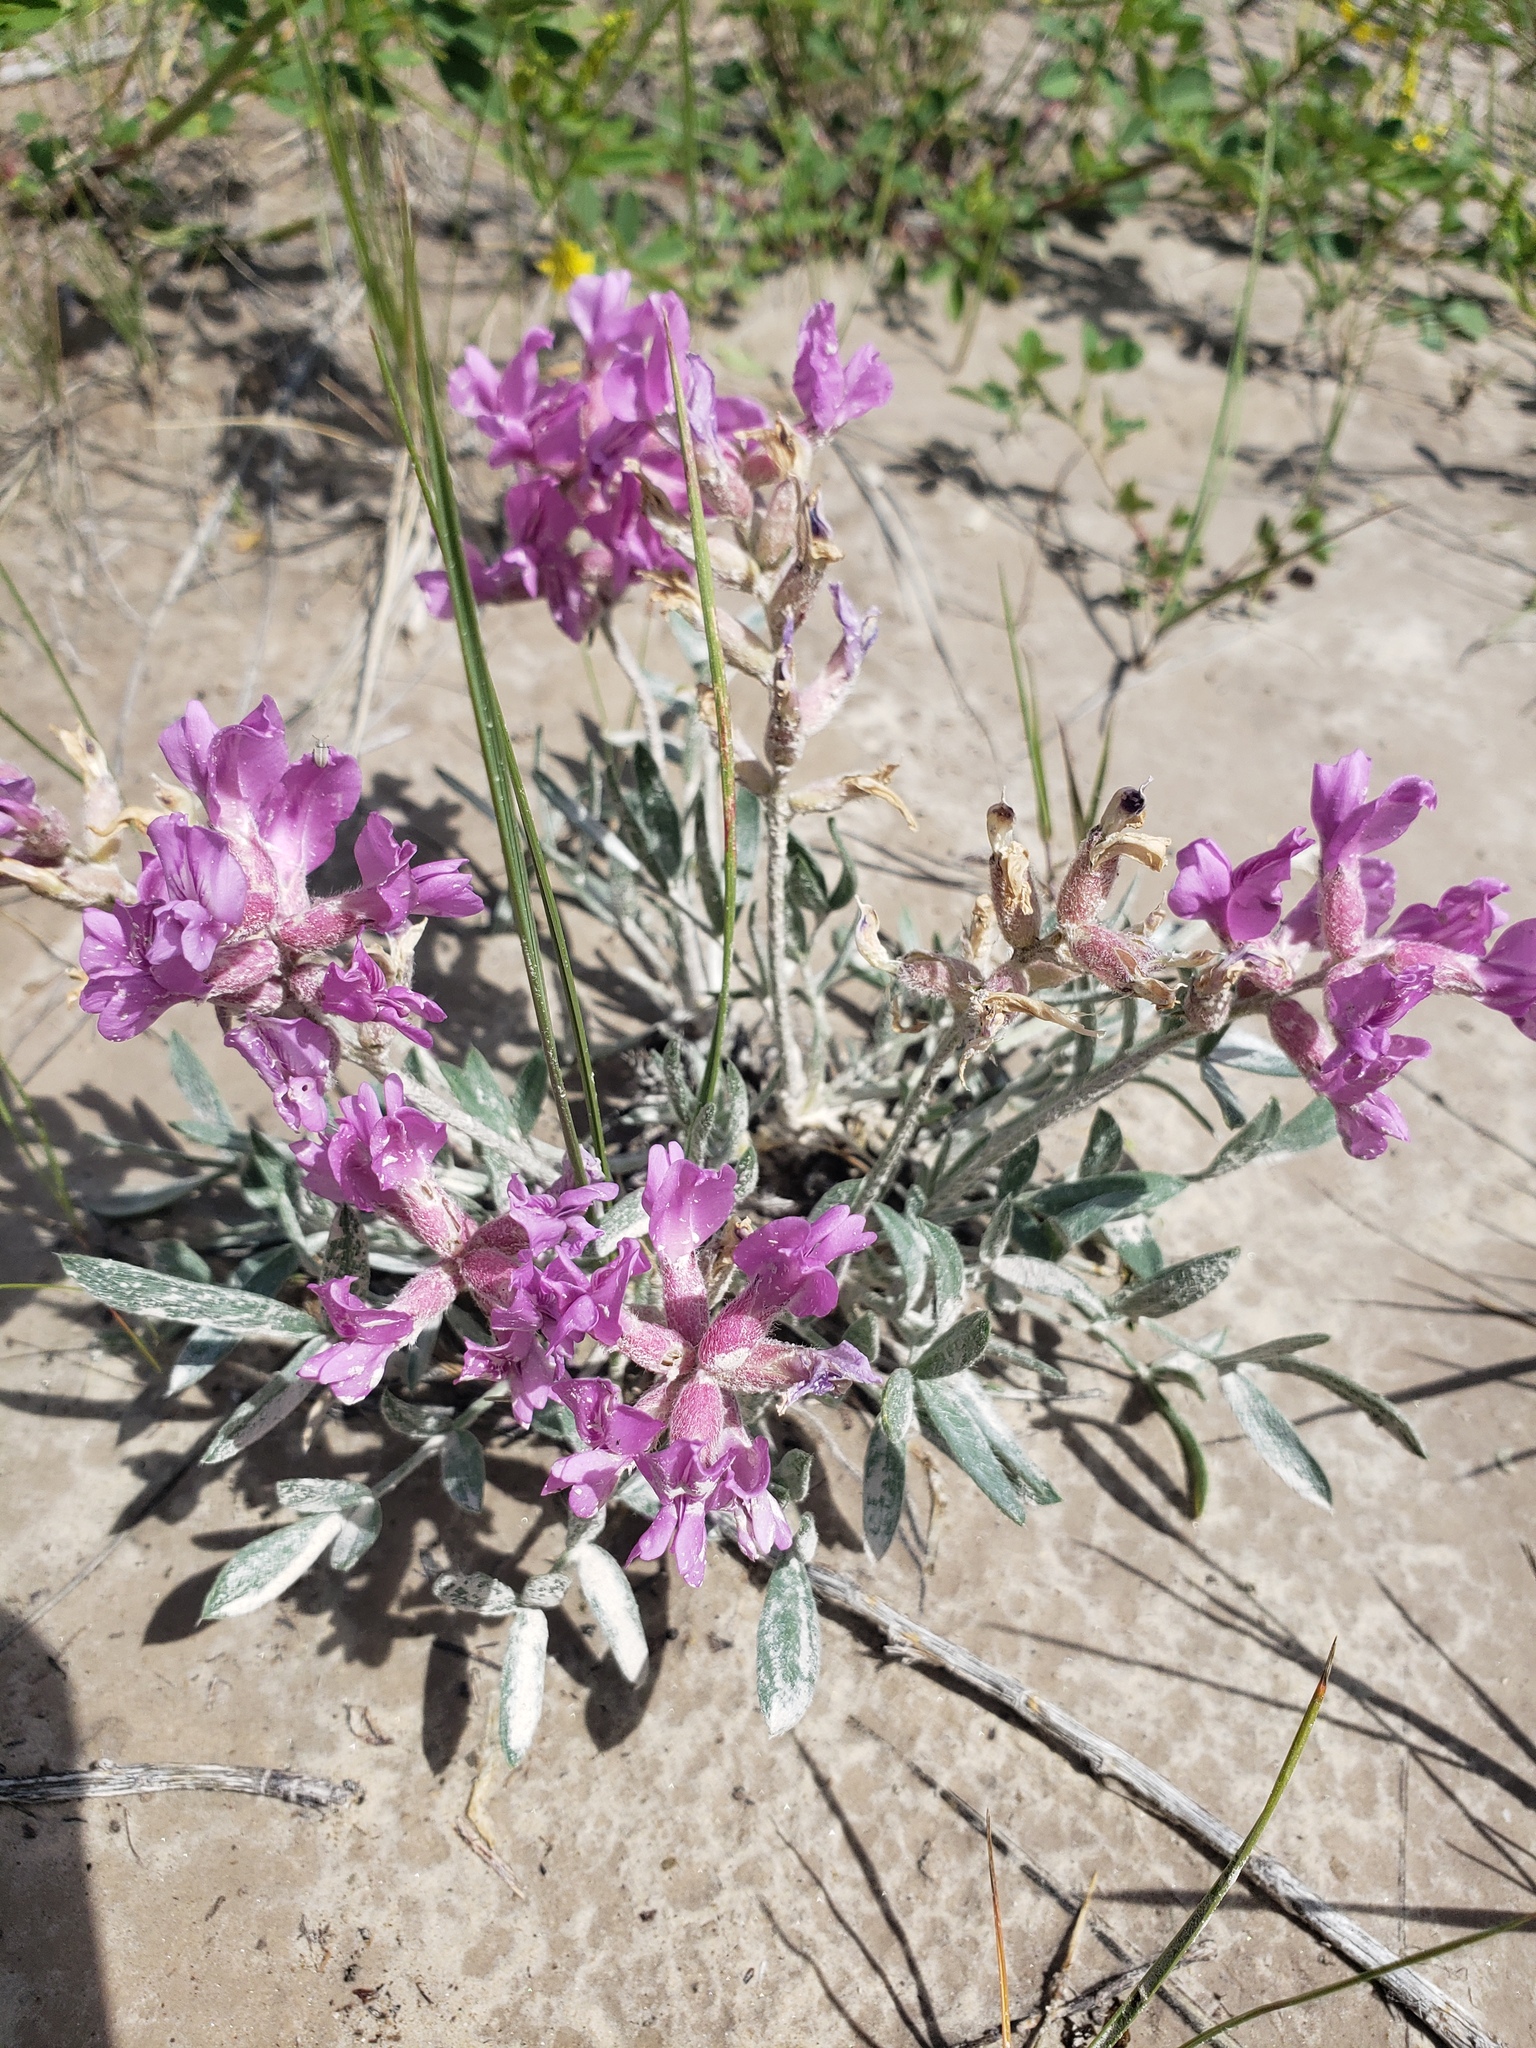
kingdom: Plantae
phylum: Tracheophyta
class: Magnoliopsida
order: Fabales
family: Fabaceae
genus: Oxytropis
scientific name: Oxytropis lambertii
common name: Purple locoweed
